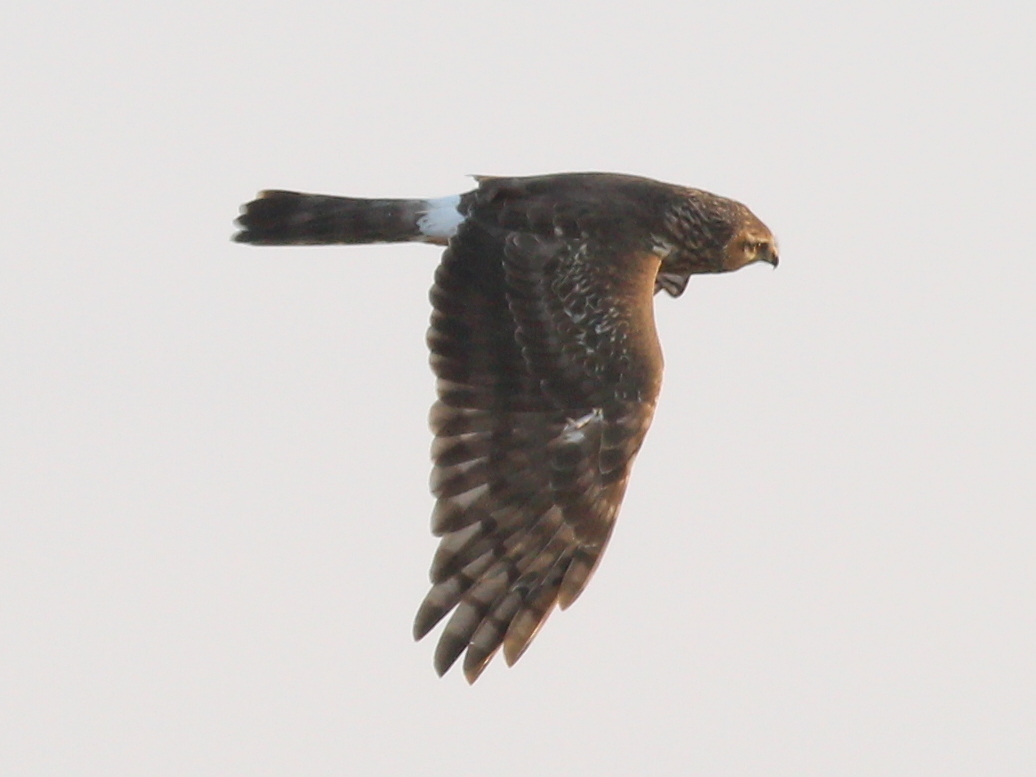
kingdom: Animalia
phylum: Chordata
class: Aves
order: Accipitriformes
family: Accipitridae
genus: Circus
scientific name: Circus cyaneus
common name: Hen harrier
